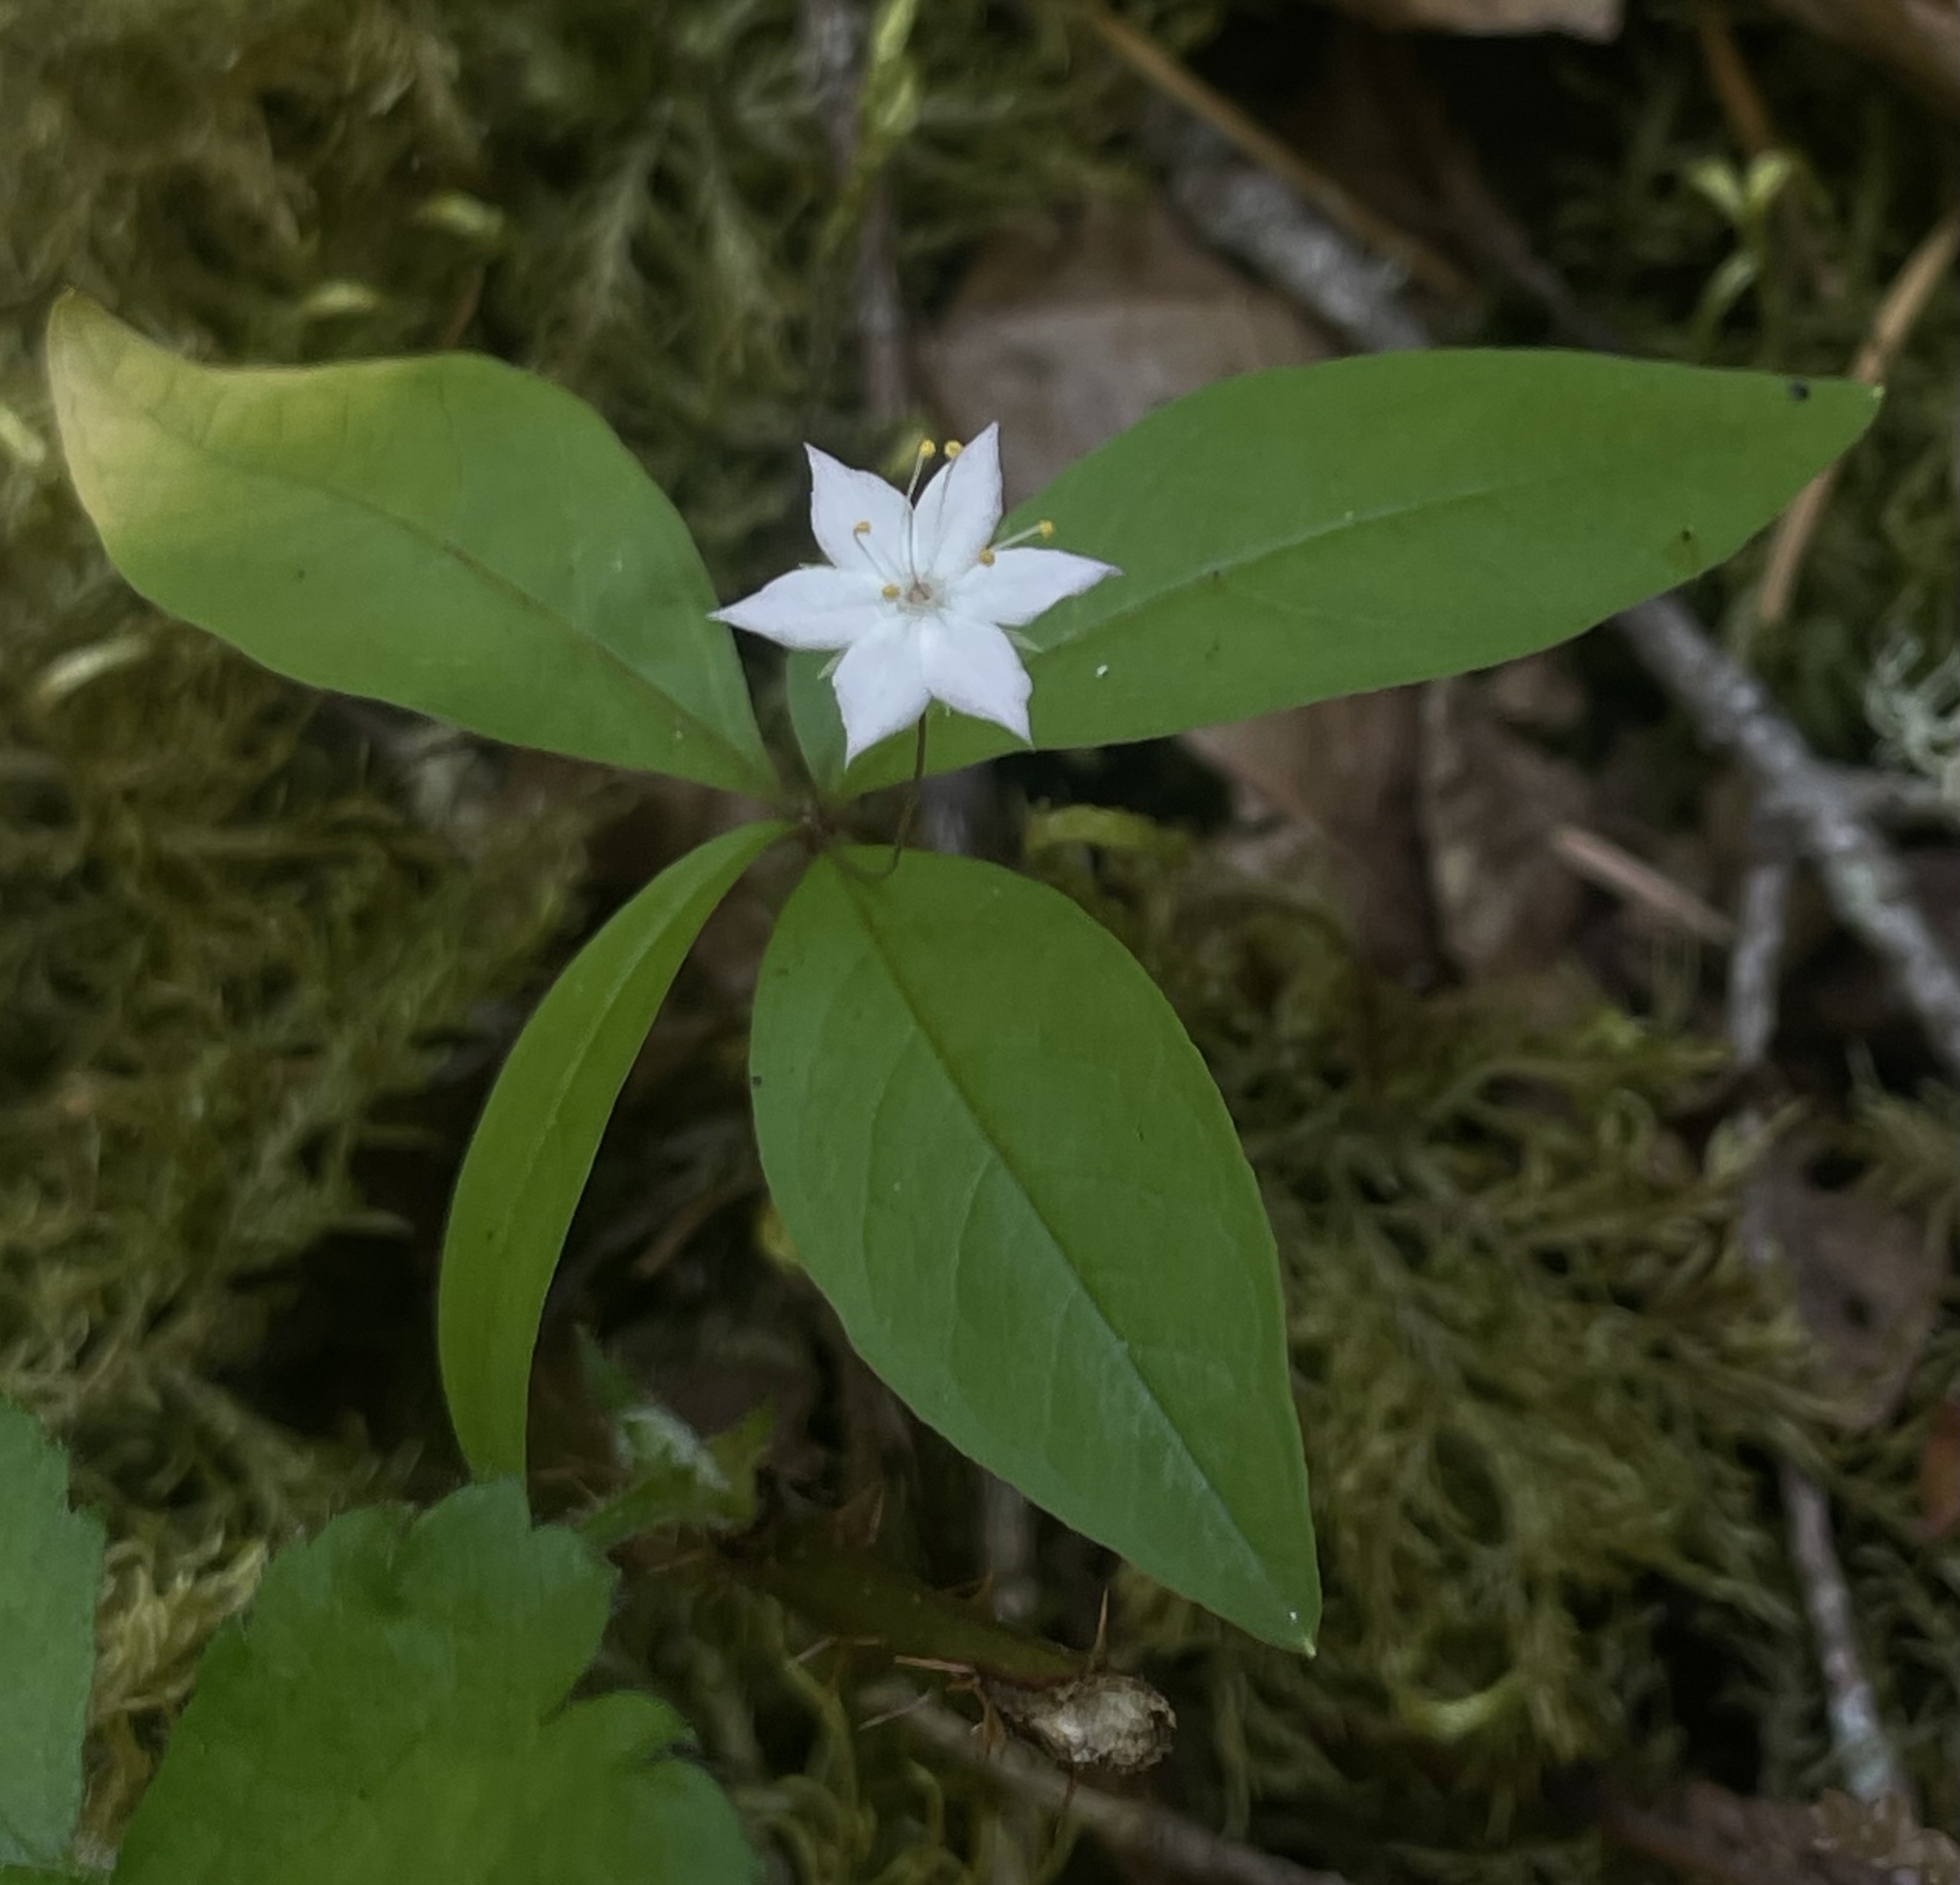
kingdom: Plantae
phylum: Tracheophyta
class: Magnoliopsida
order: Ericales
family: Primulaceae
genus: Lysimachia
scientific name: Lysimachia latifolia
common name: Pacific starflower
